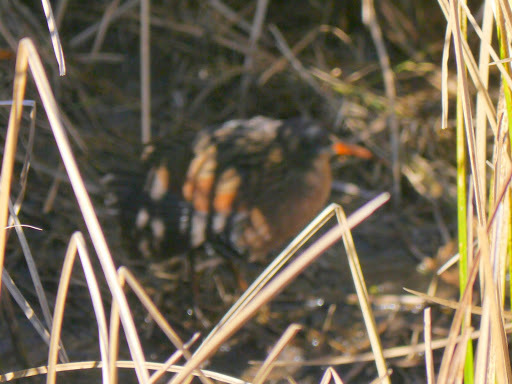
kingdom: Animalia
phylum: Chordata
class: Aves
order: Gruiformes
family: Rallidae
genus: Rallus
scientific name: Rallus limicola
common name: Virginia rail
